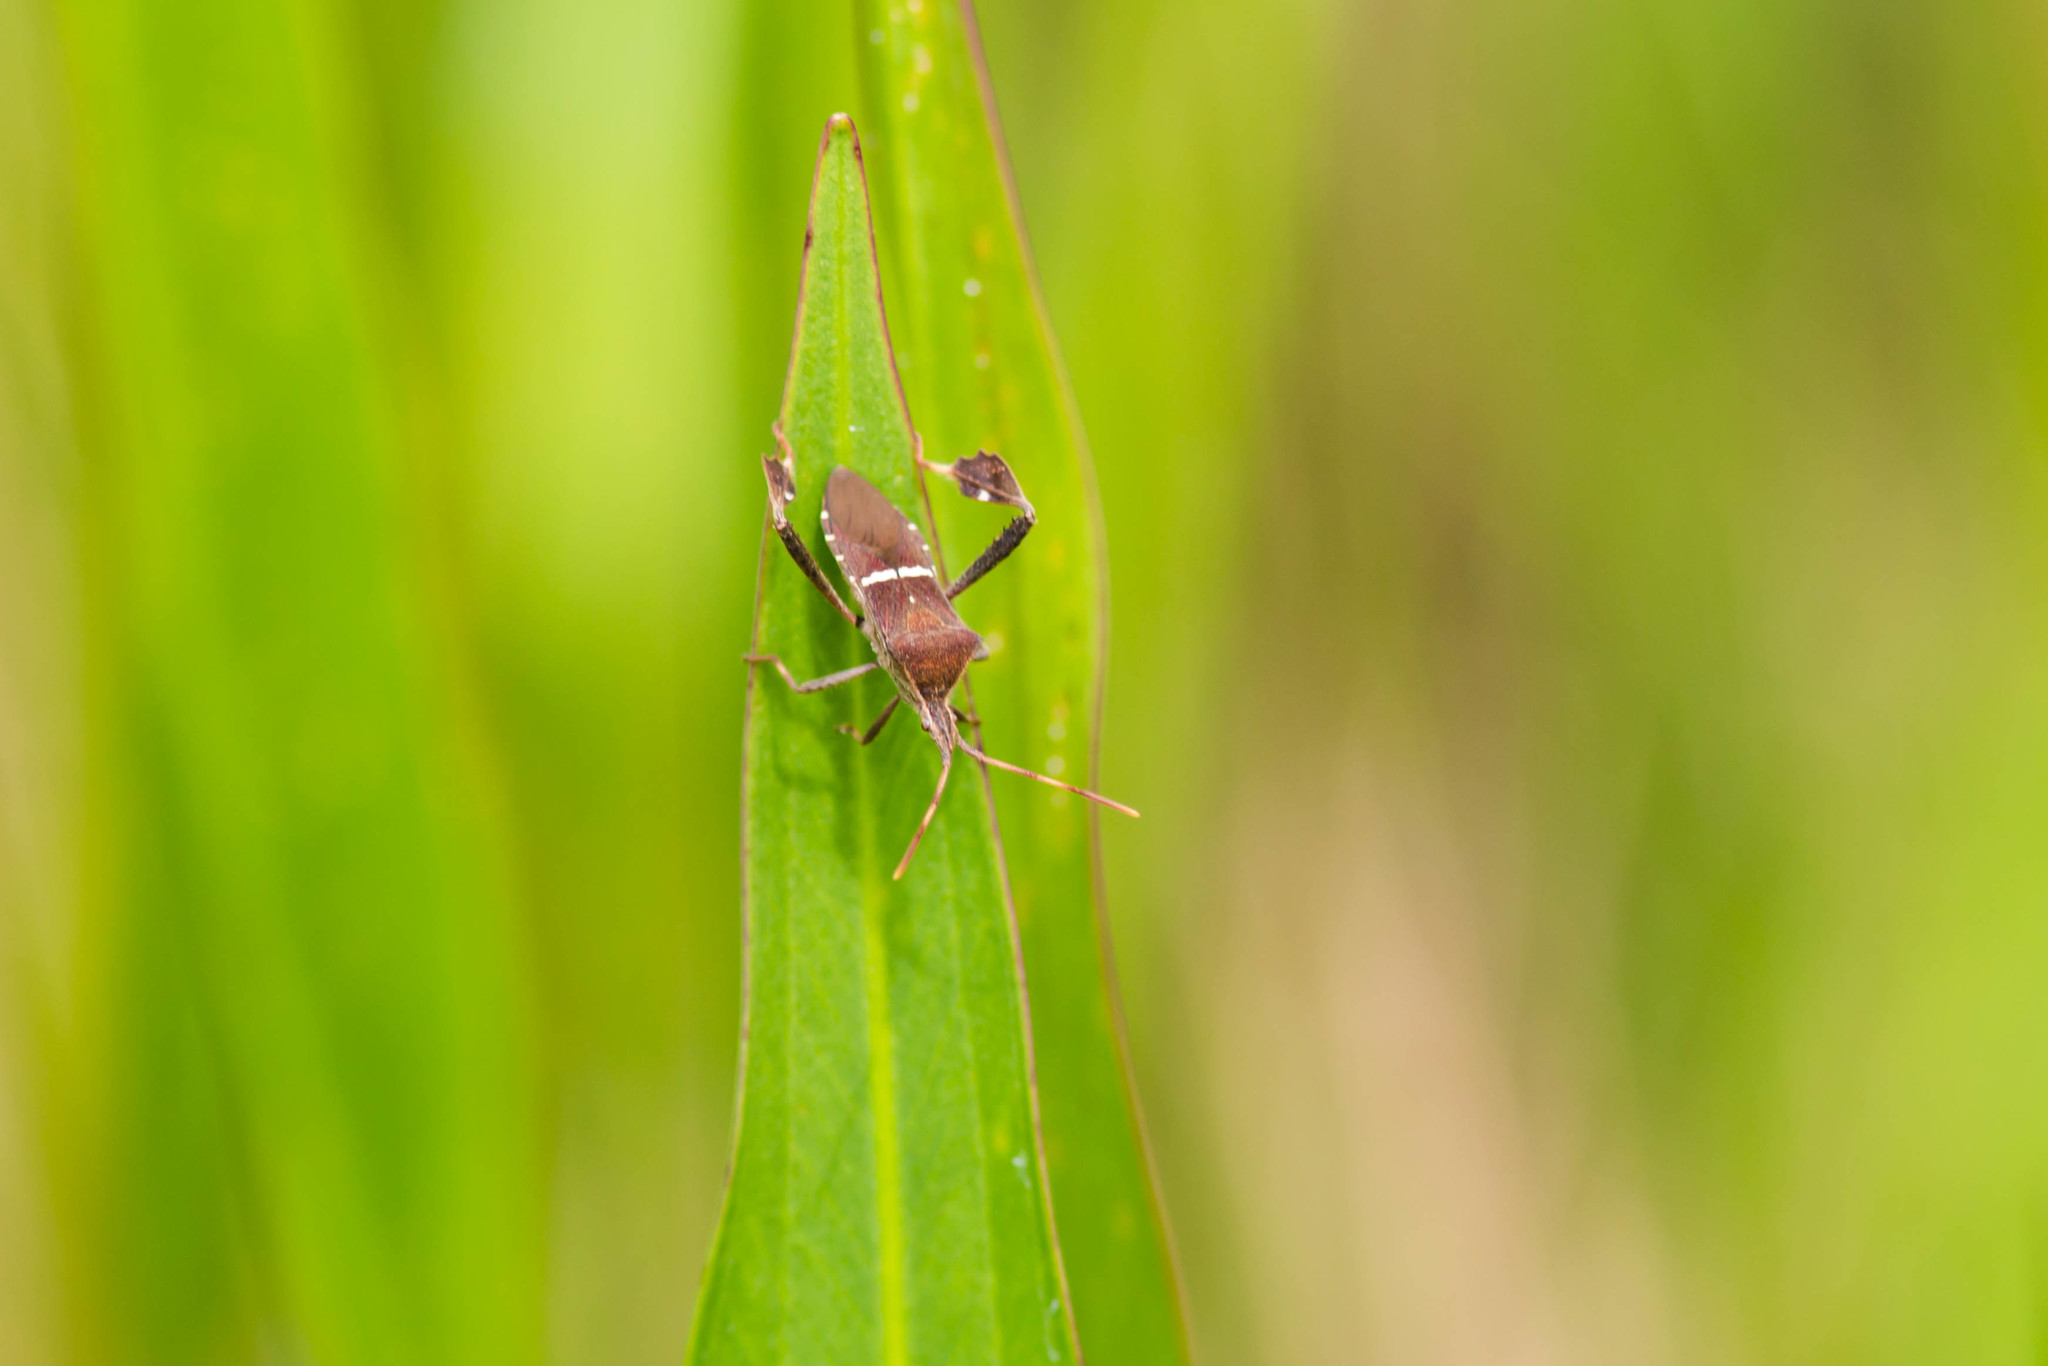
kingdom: Animalia
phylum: Arthropoda
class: Insecta
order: Hemiptera
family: Coreidae
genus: Leptoglossus
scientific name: Leptoglossus phyllopus
